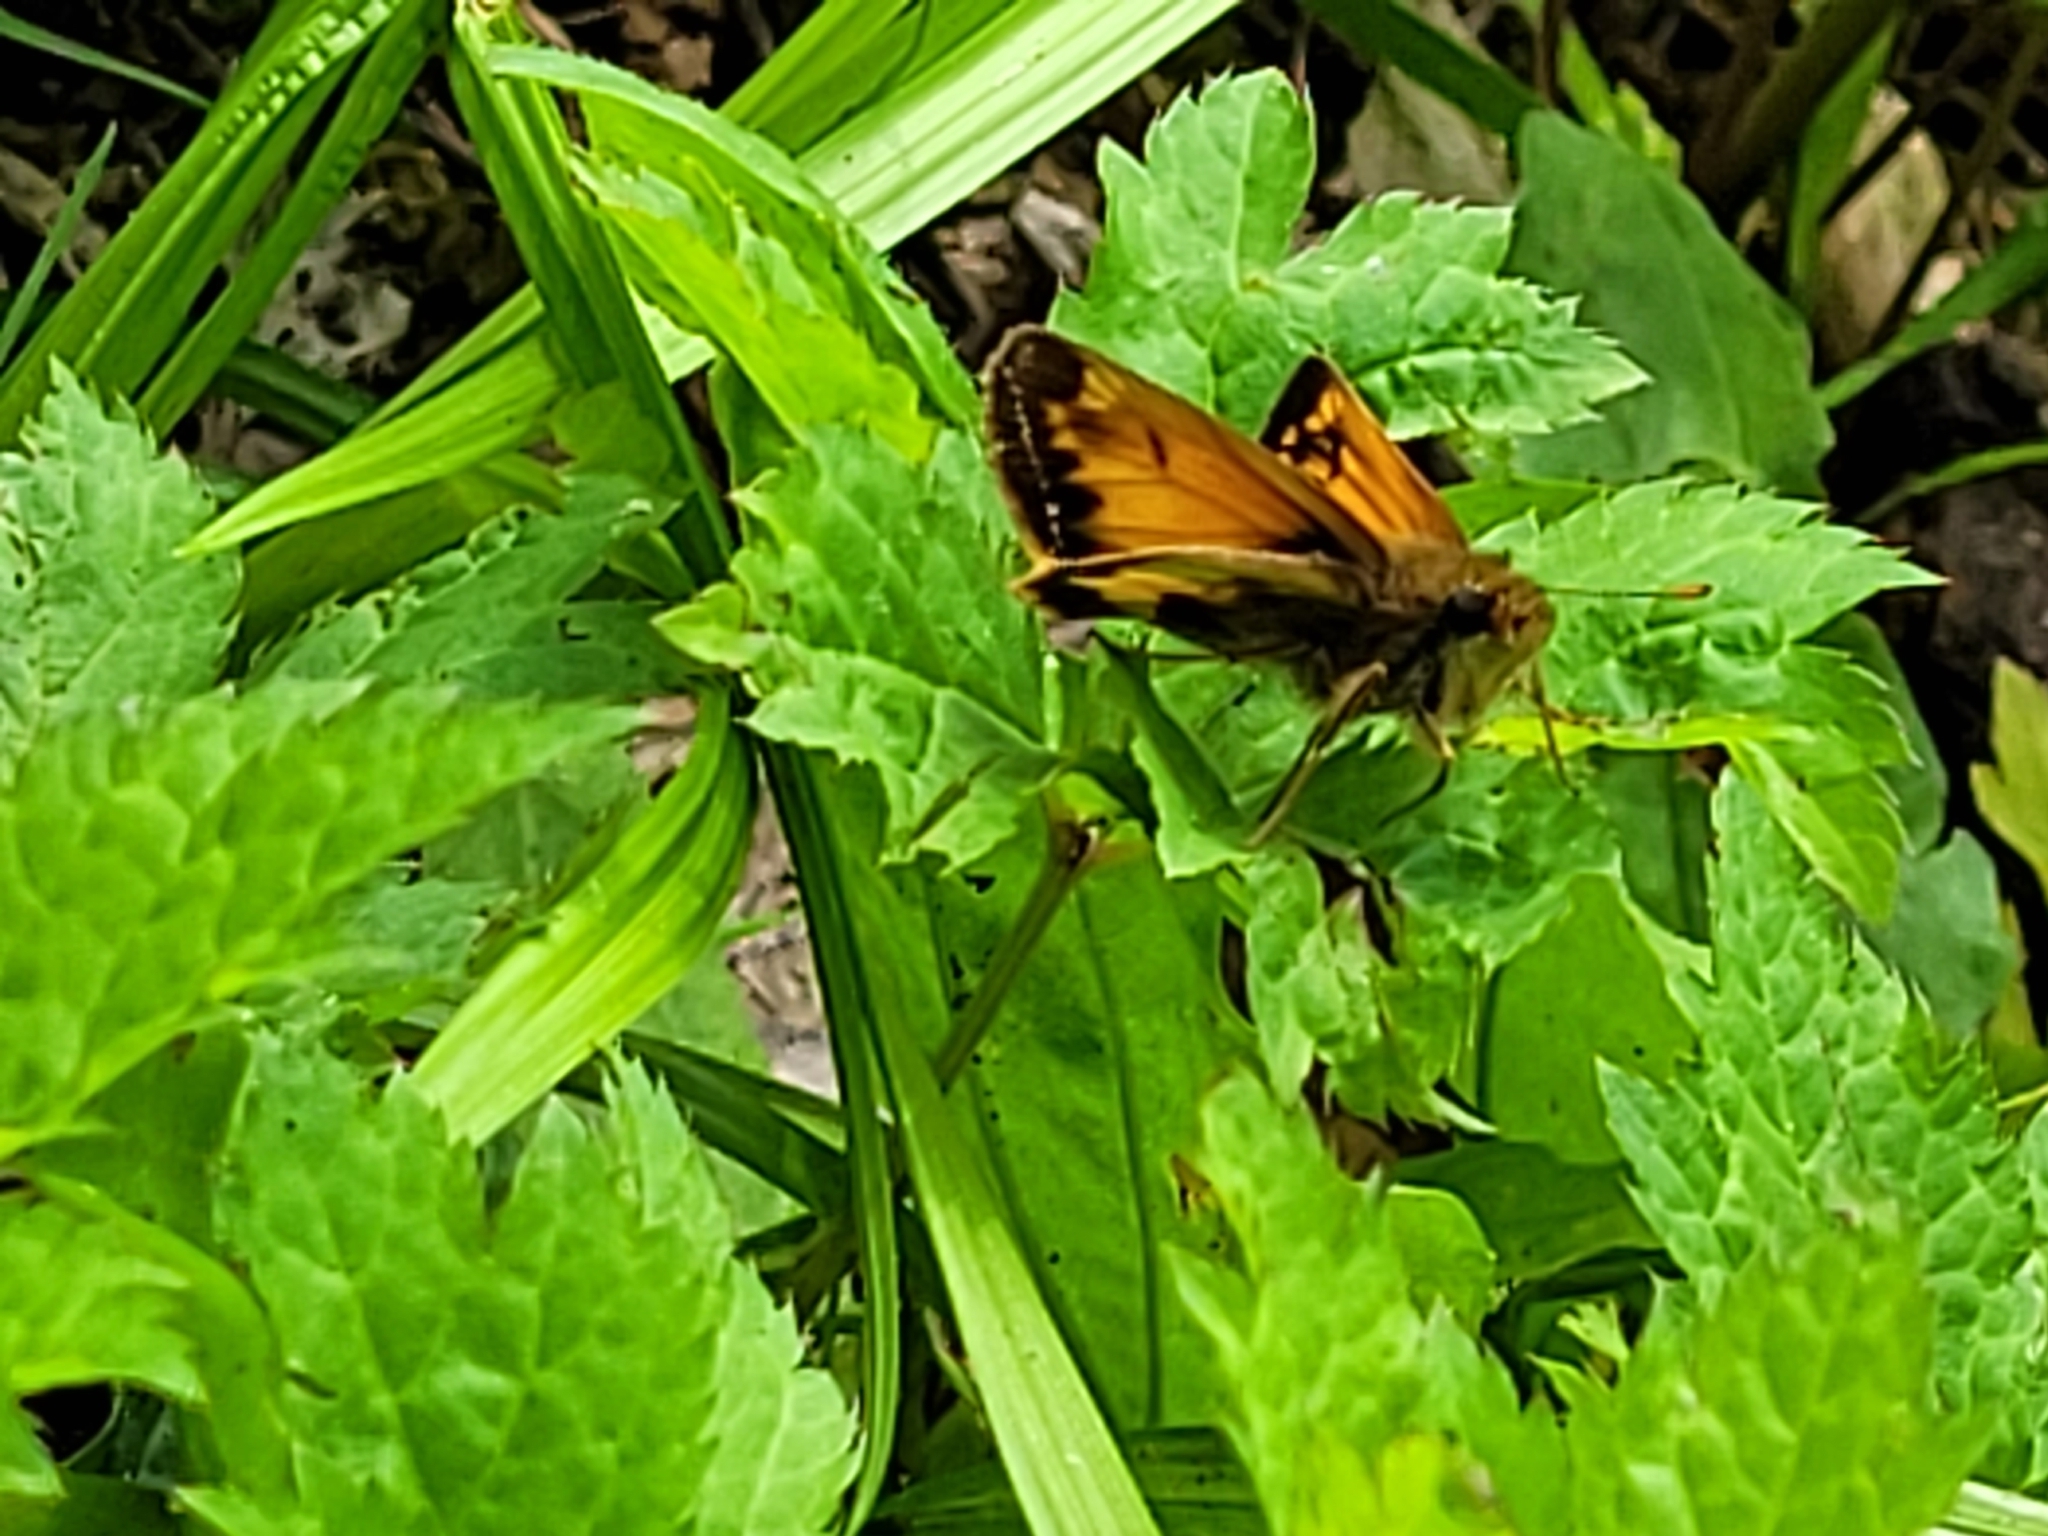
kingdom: Animalia
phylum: Arthropoda
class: Insecta
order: Lepidoptera
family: Hesperiidae
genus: Lon
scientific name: Lon hobomok
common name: Hobomok skipper
